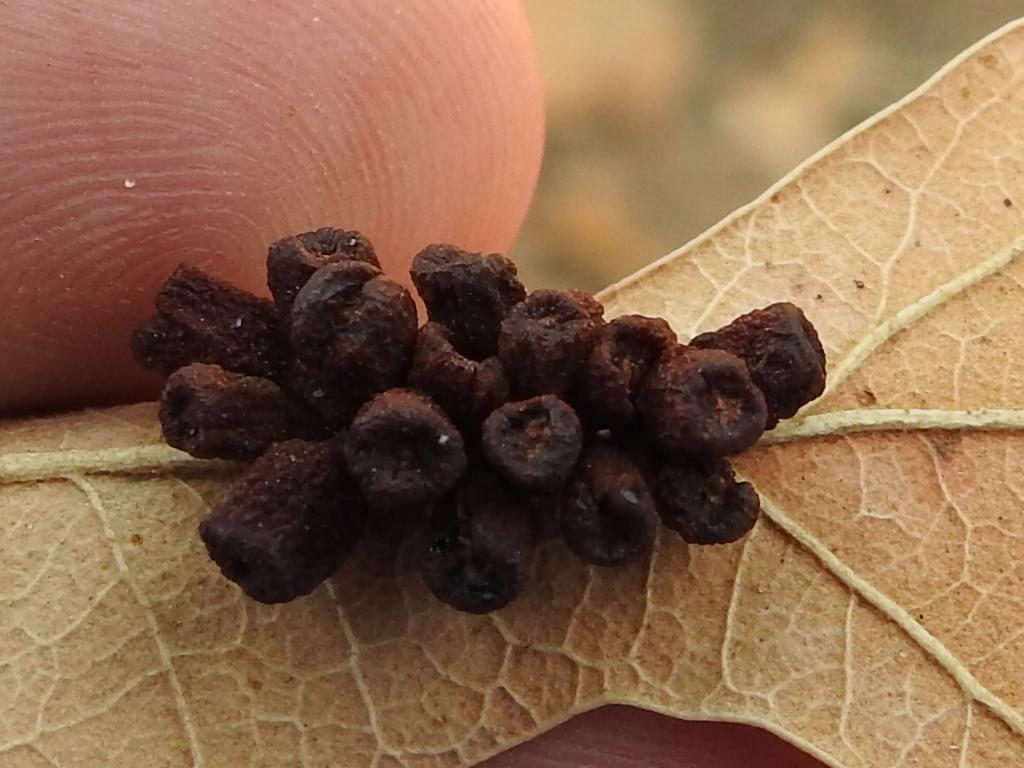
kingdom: Animalia
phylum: Arthropoda
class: Insecta
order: Hymenoptera
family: Cynipidae
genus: Andricus
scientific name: Andricus lustrans
